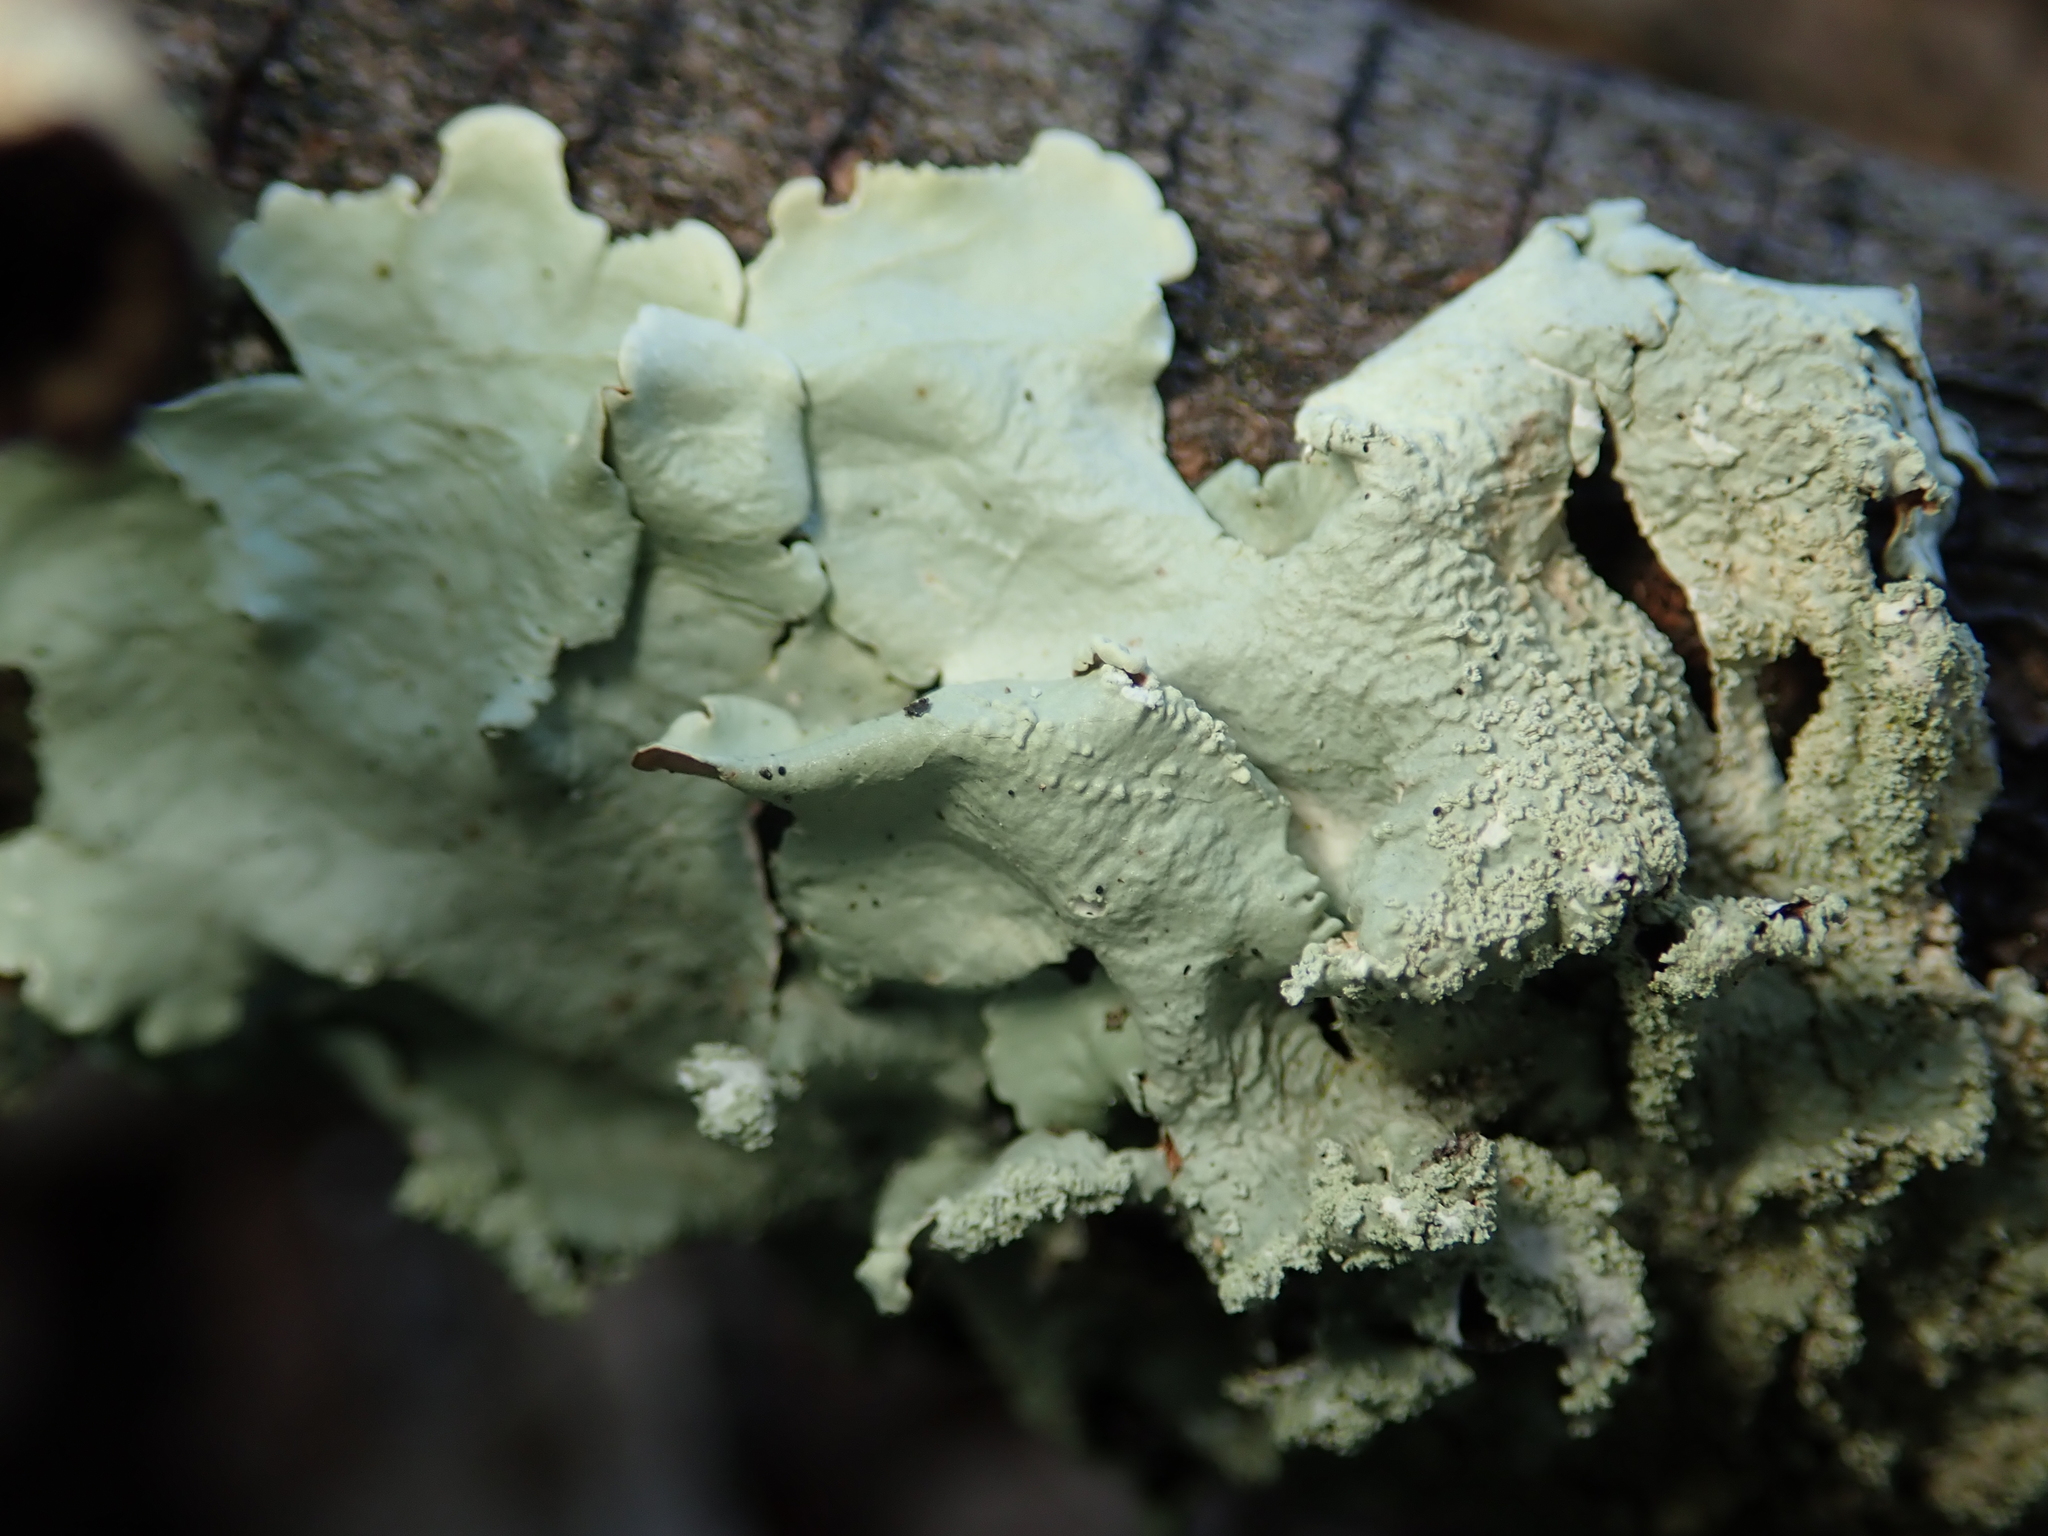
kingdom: Fungi
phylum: Ascomycota
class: Lecanoromycetes
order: Lecanorales
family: Parmeliaceae
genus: Flavoparmelia
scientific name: Flavoparmelia caperata
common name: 40-mile per hour lichen
